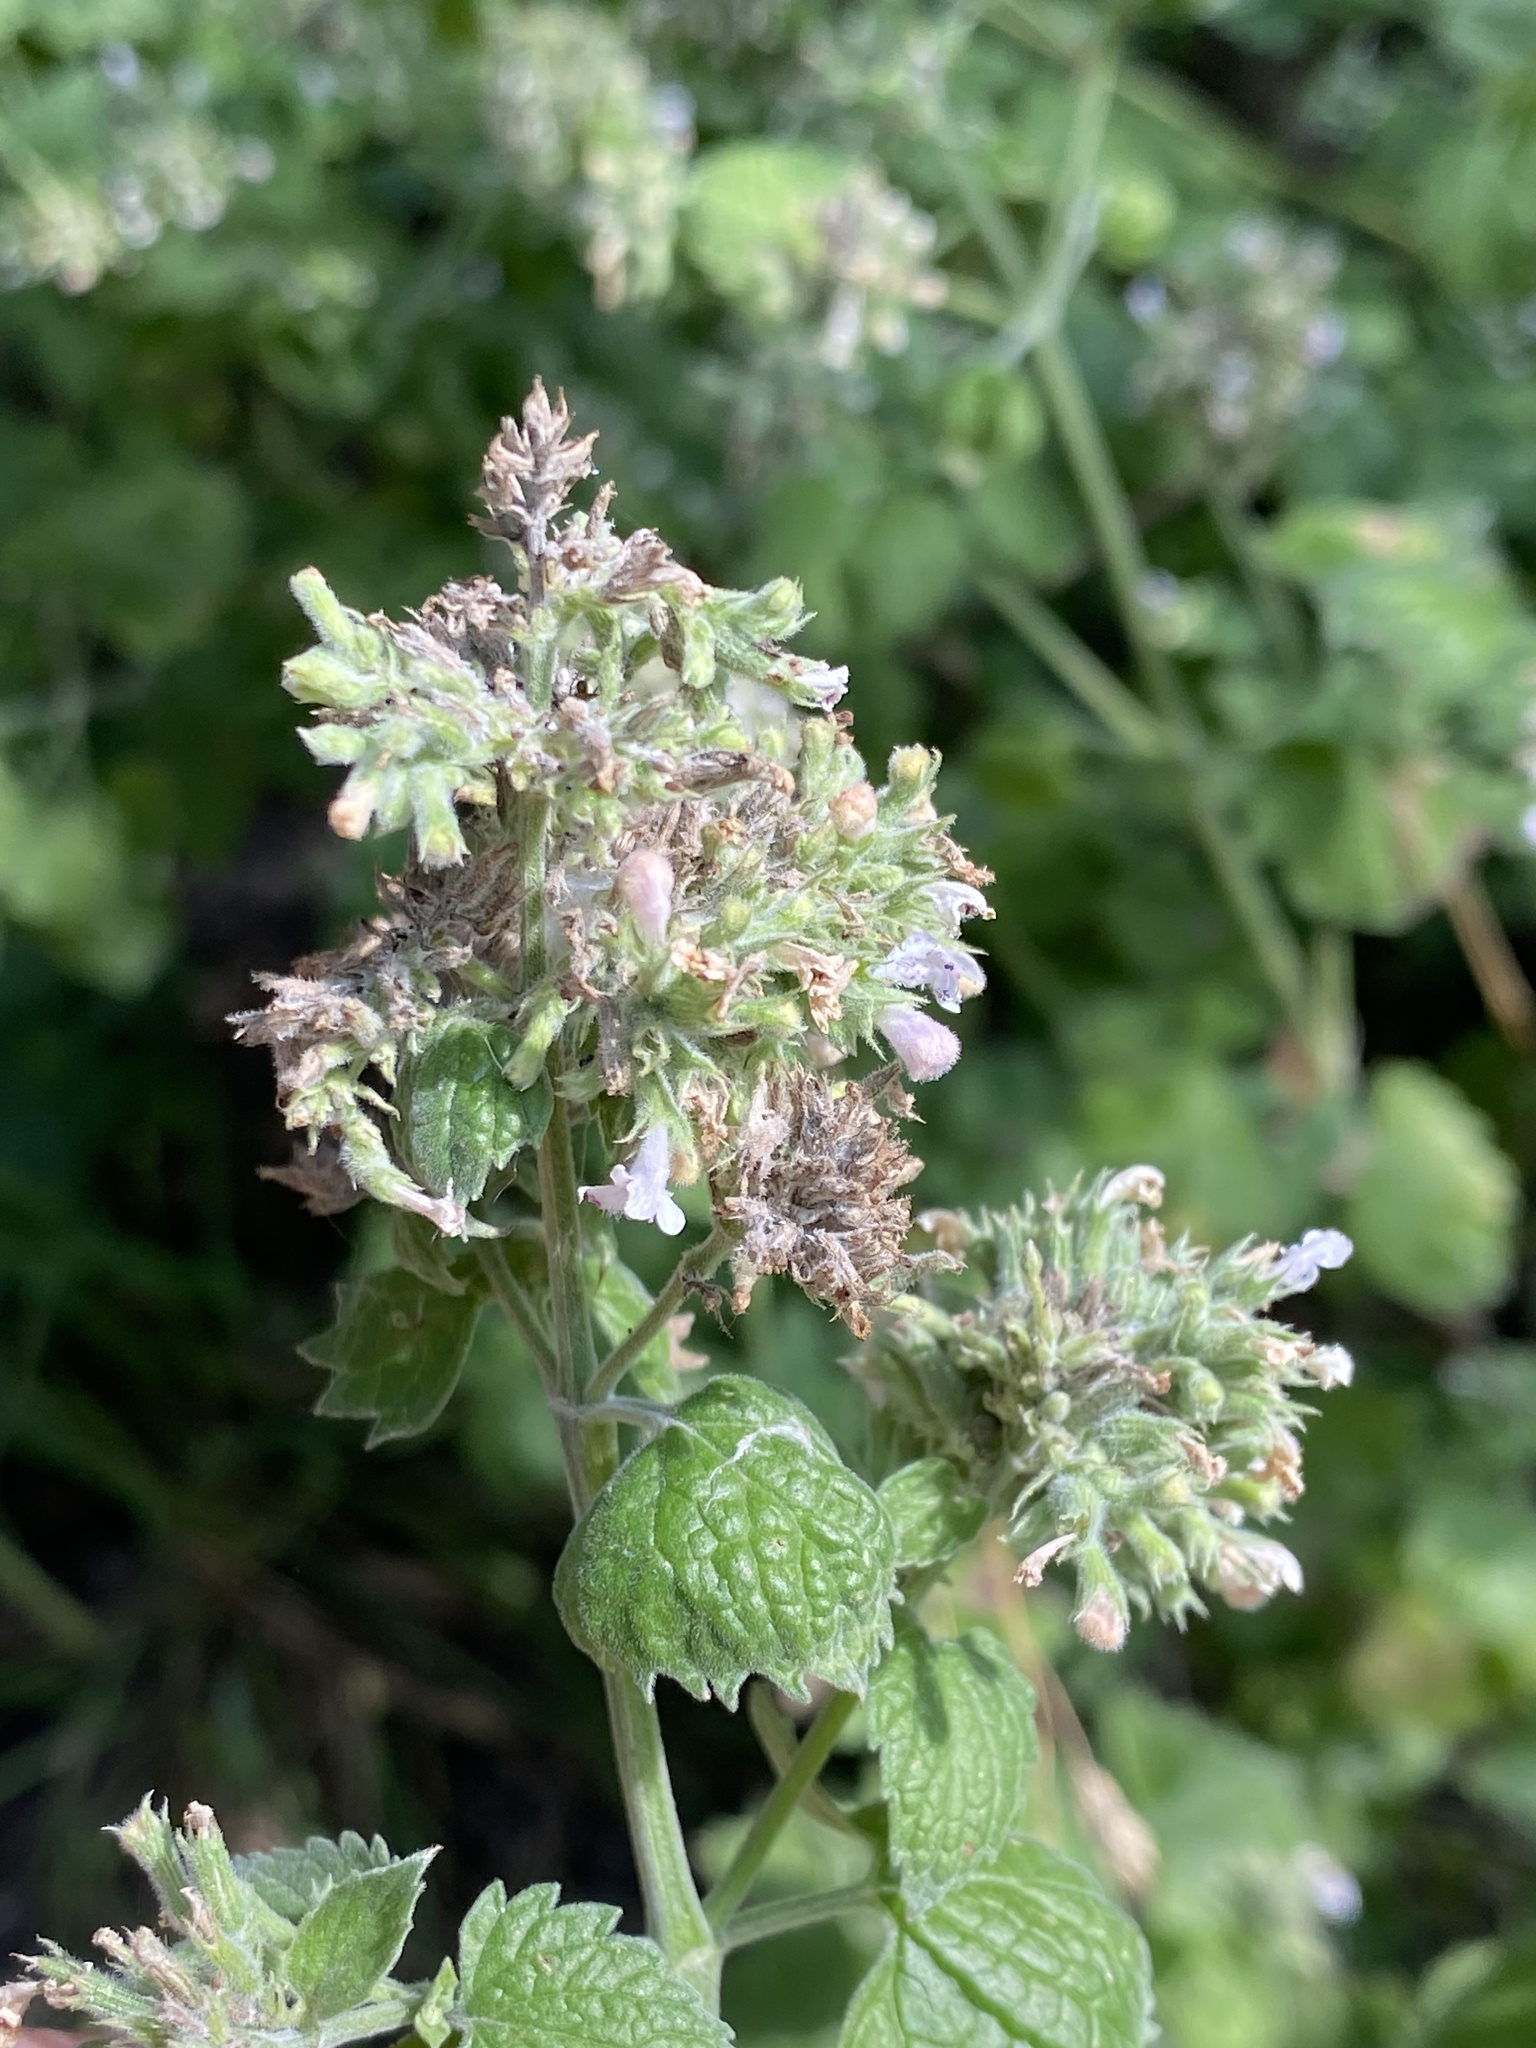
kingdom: Plantae
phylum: Tracheophyta
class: Magnoliopsida
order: Lamiales
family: Lamiaceae
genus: Nepeta
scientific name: Nepeta cataria
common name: Catnip
